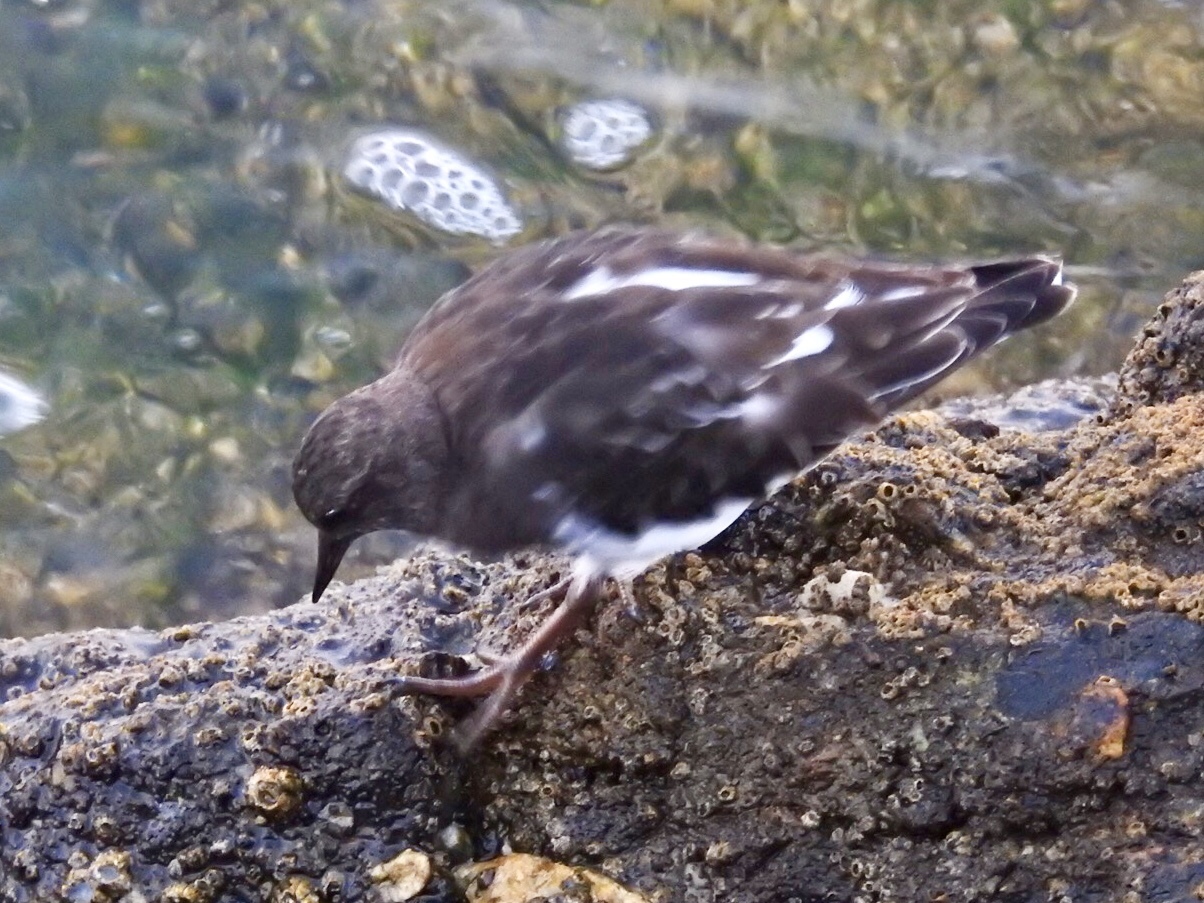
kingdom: Animalia
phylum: Chordata
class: Aves
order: Charadriiformes
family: Scolopacidae
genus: Arenaria
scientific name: Arenaria melanocephala
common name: Black turnstone
